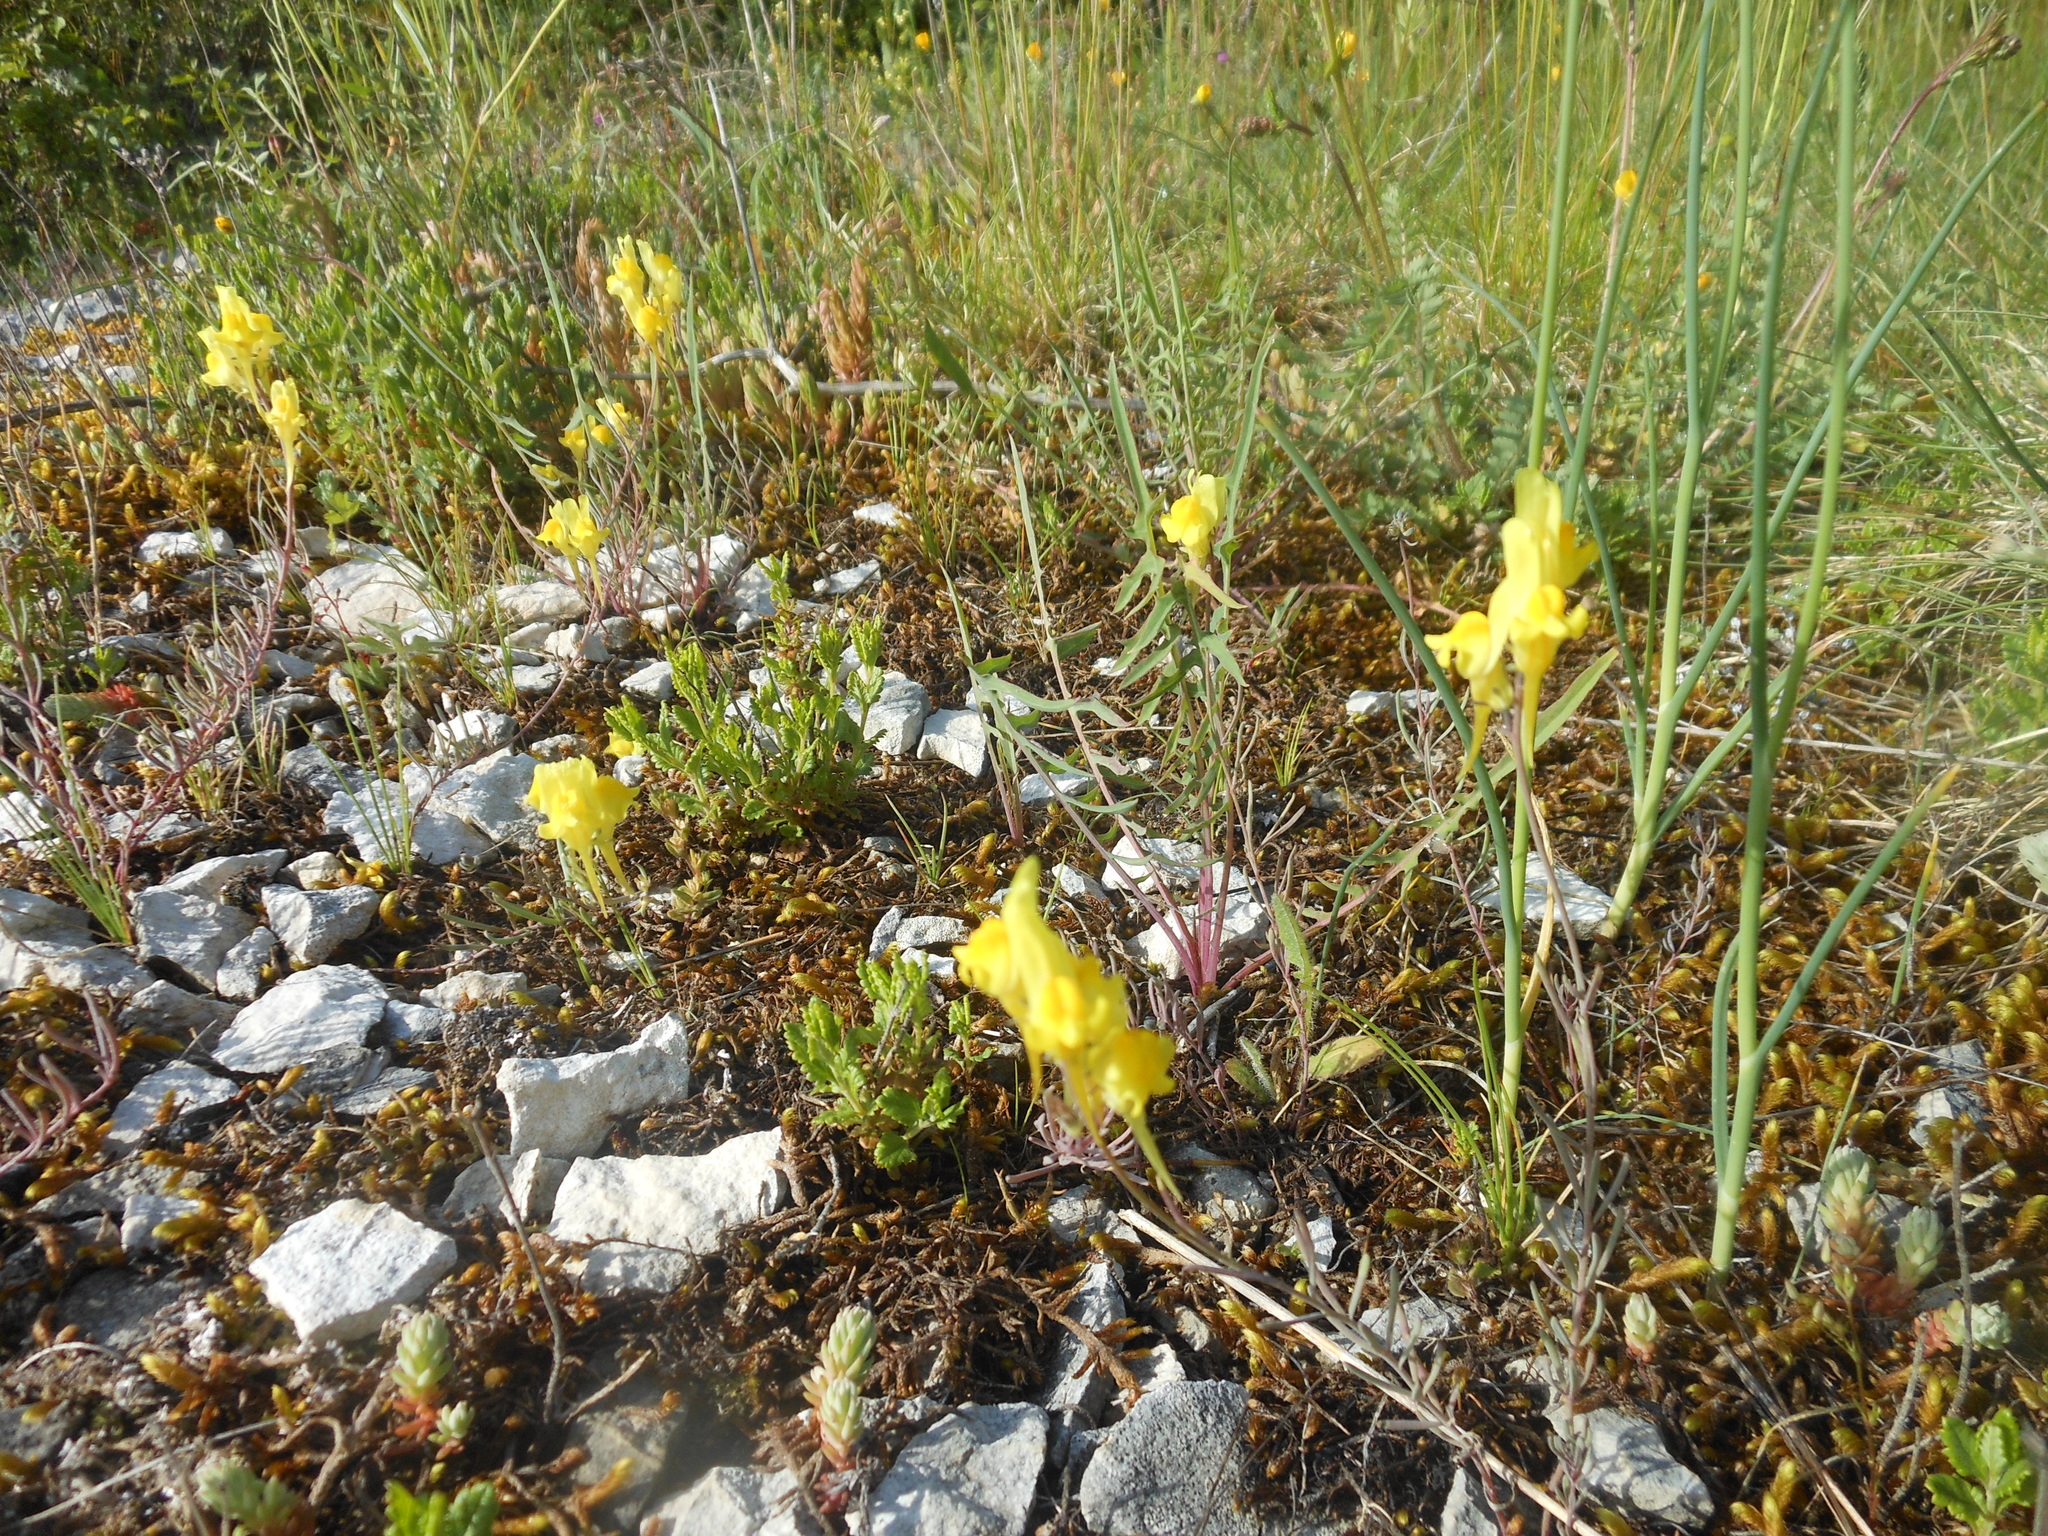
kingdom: Plantae
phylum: Tracheophyta
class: Magnoliopsida
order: Lamiales
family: Plantaginaceae
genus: Linaria
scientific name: Linaria supina
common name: Prostrate toadflax
